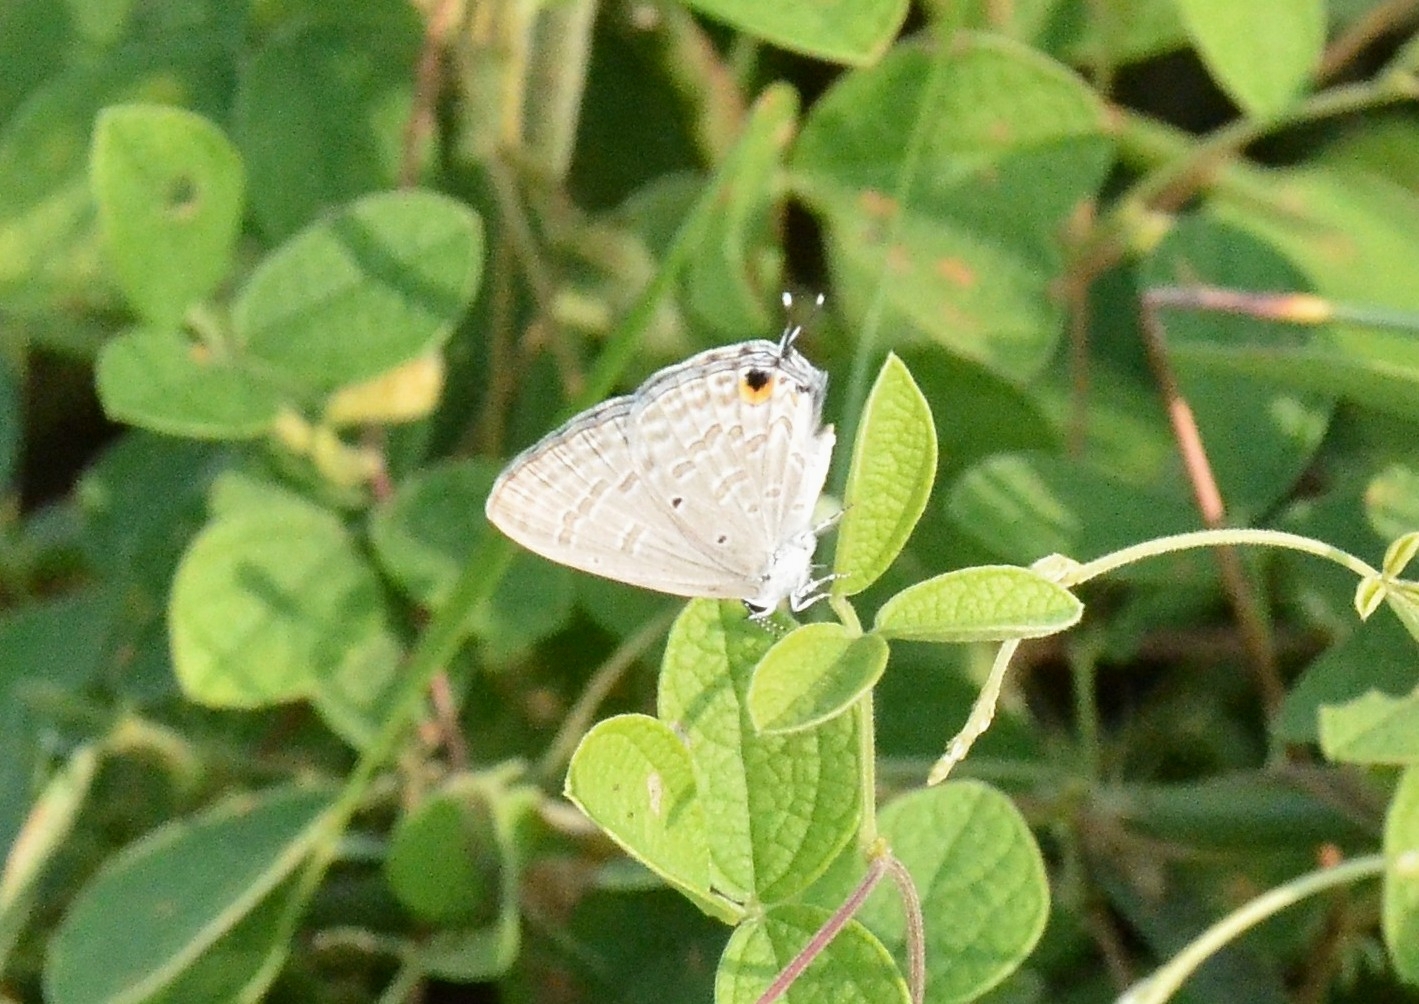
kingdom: Animalia
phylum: Arthropoda
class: Insecta
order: Lepidoptera
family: Lycaenidae
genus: Catochrysops
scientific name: Catochrysops strabo
